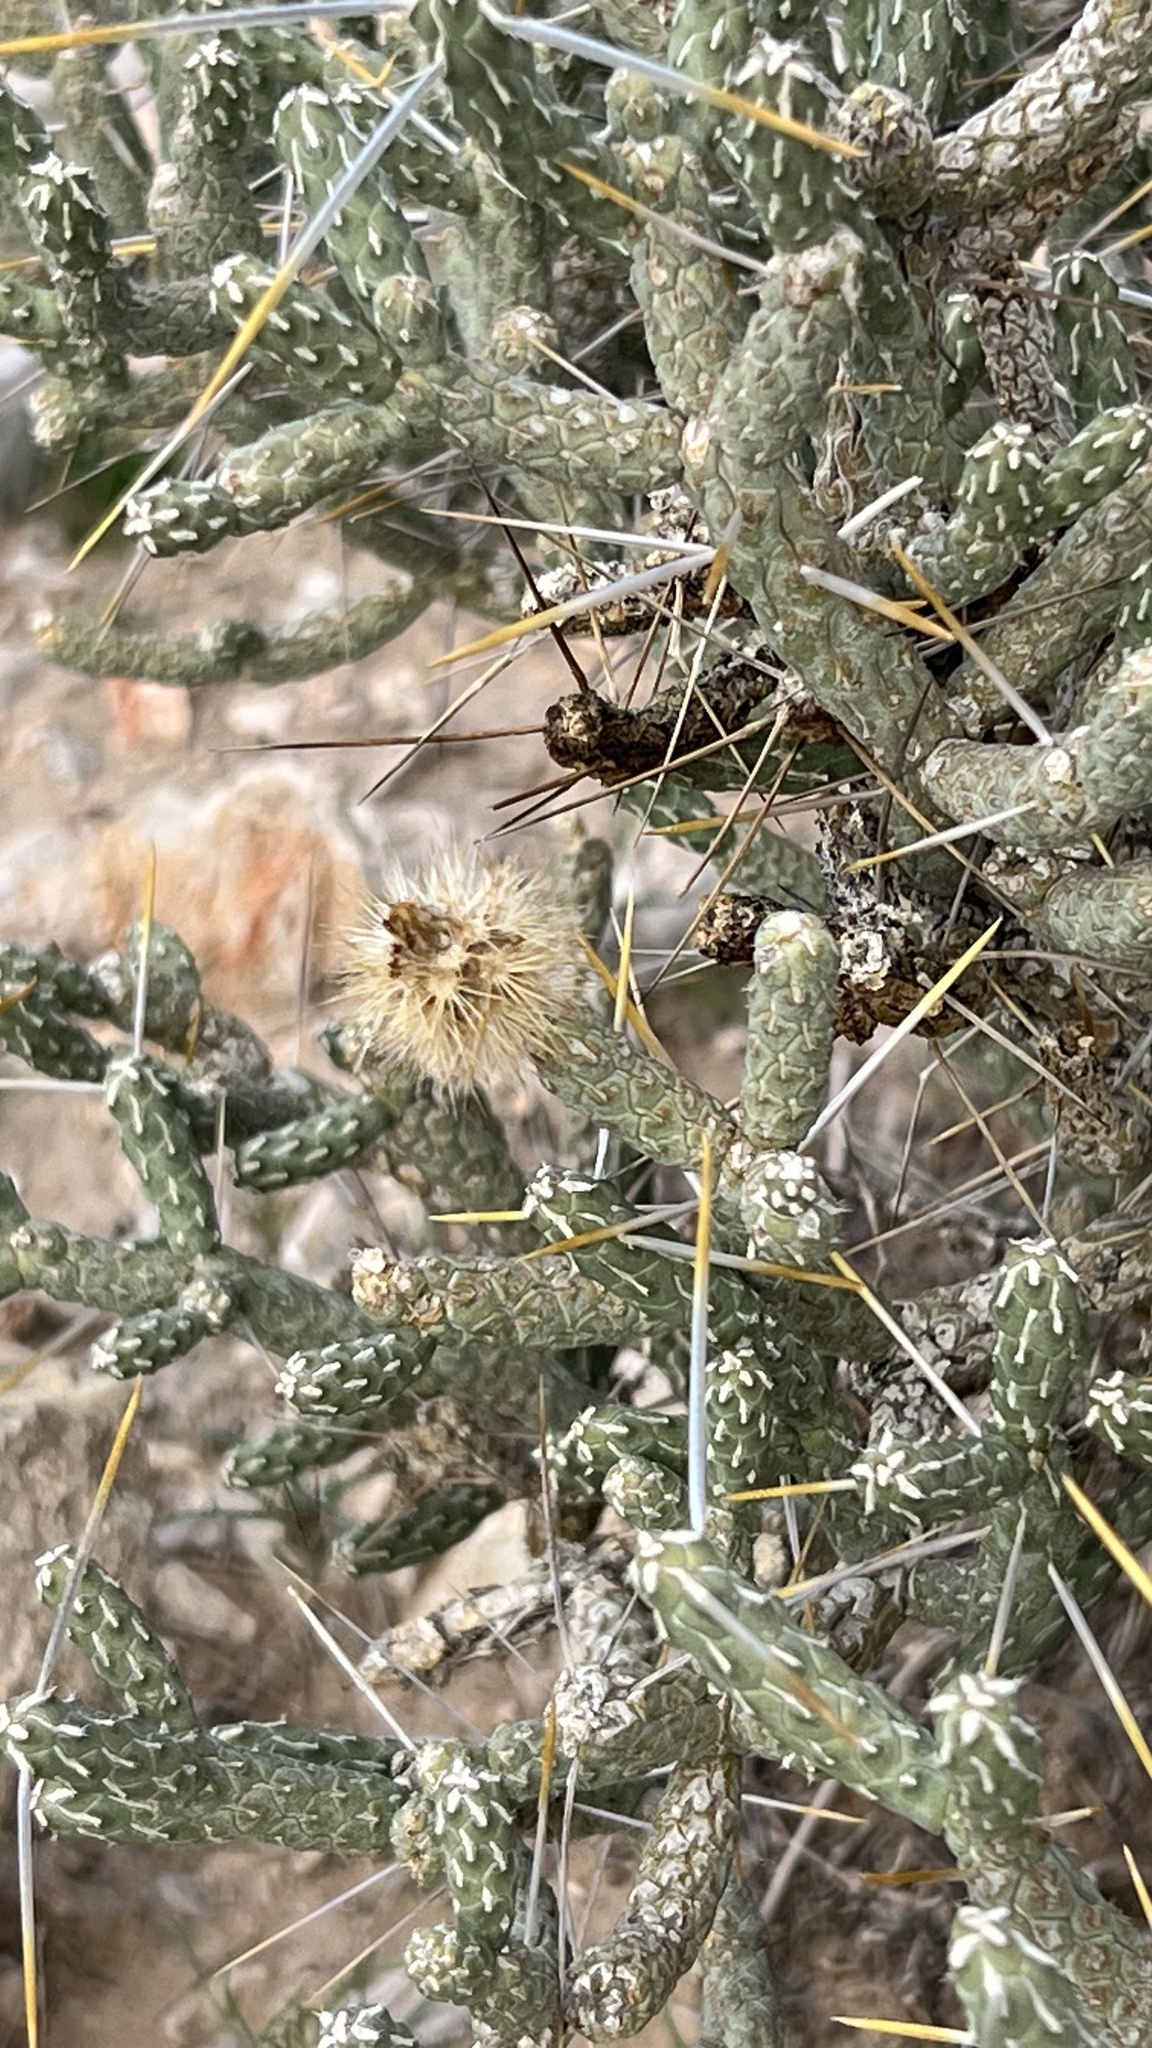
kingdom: Plantae
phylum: Tracheophyta
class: Magnoliopsida
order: Caryophyllales
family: Cactaceae
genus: Cylindropuntia
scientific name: Cylindropuntia ramosissima
